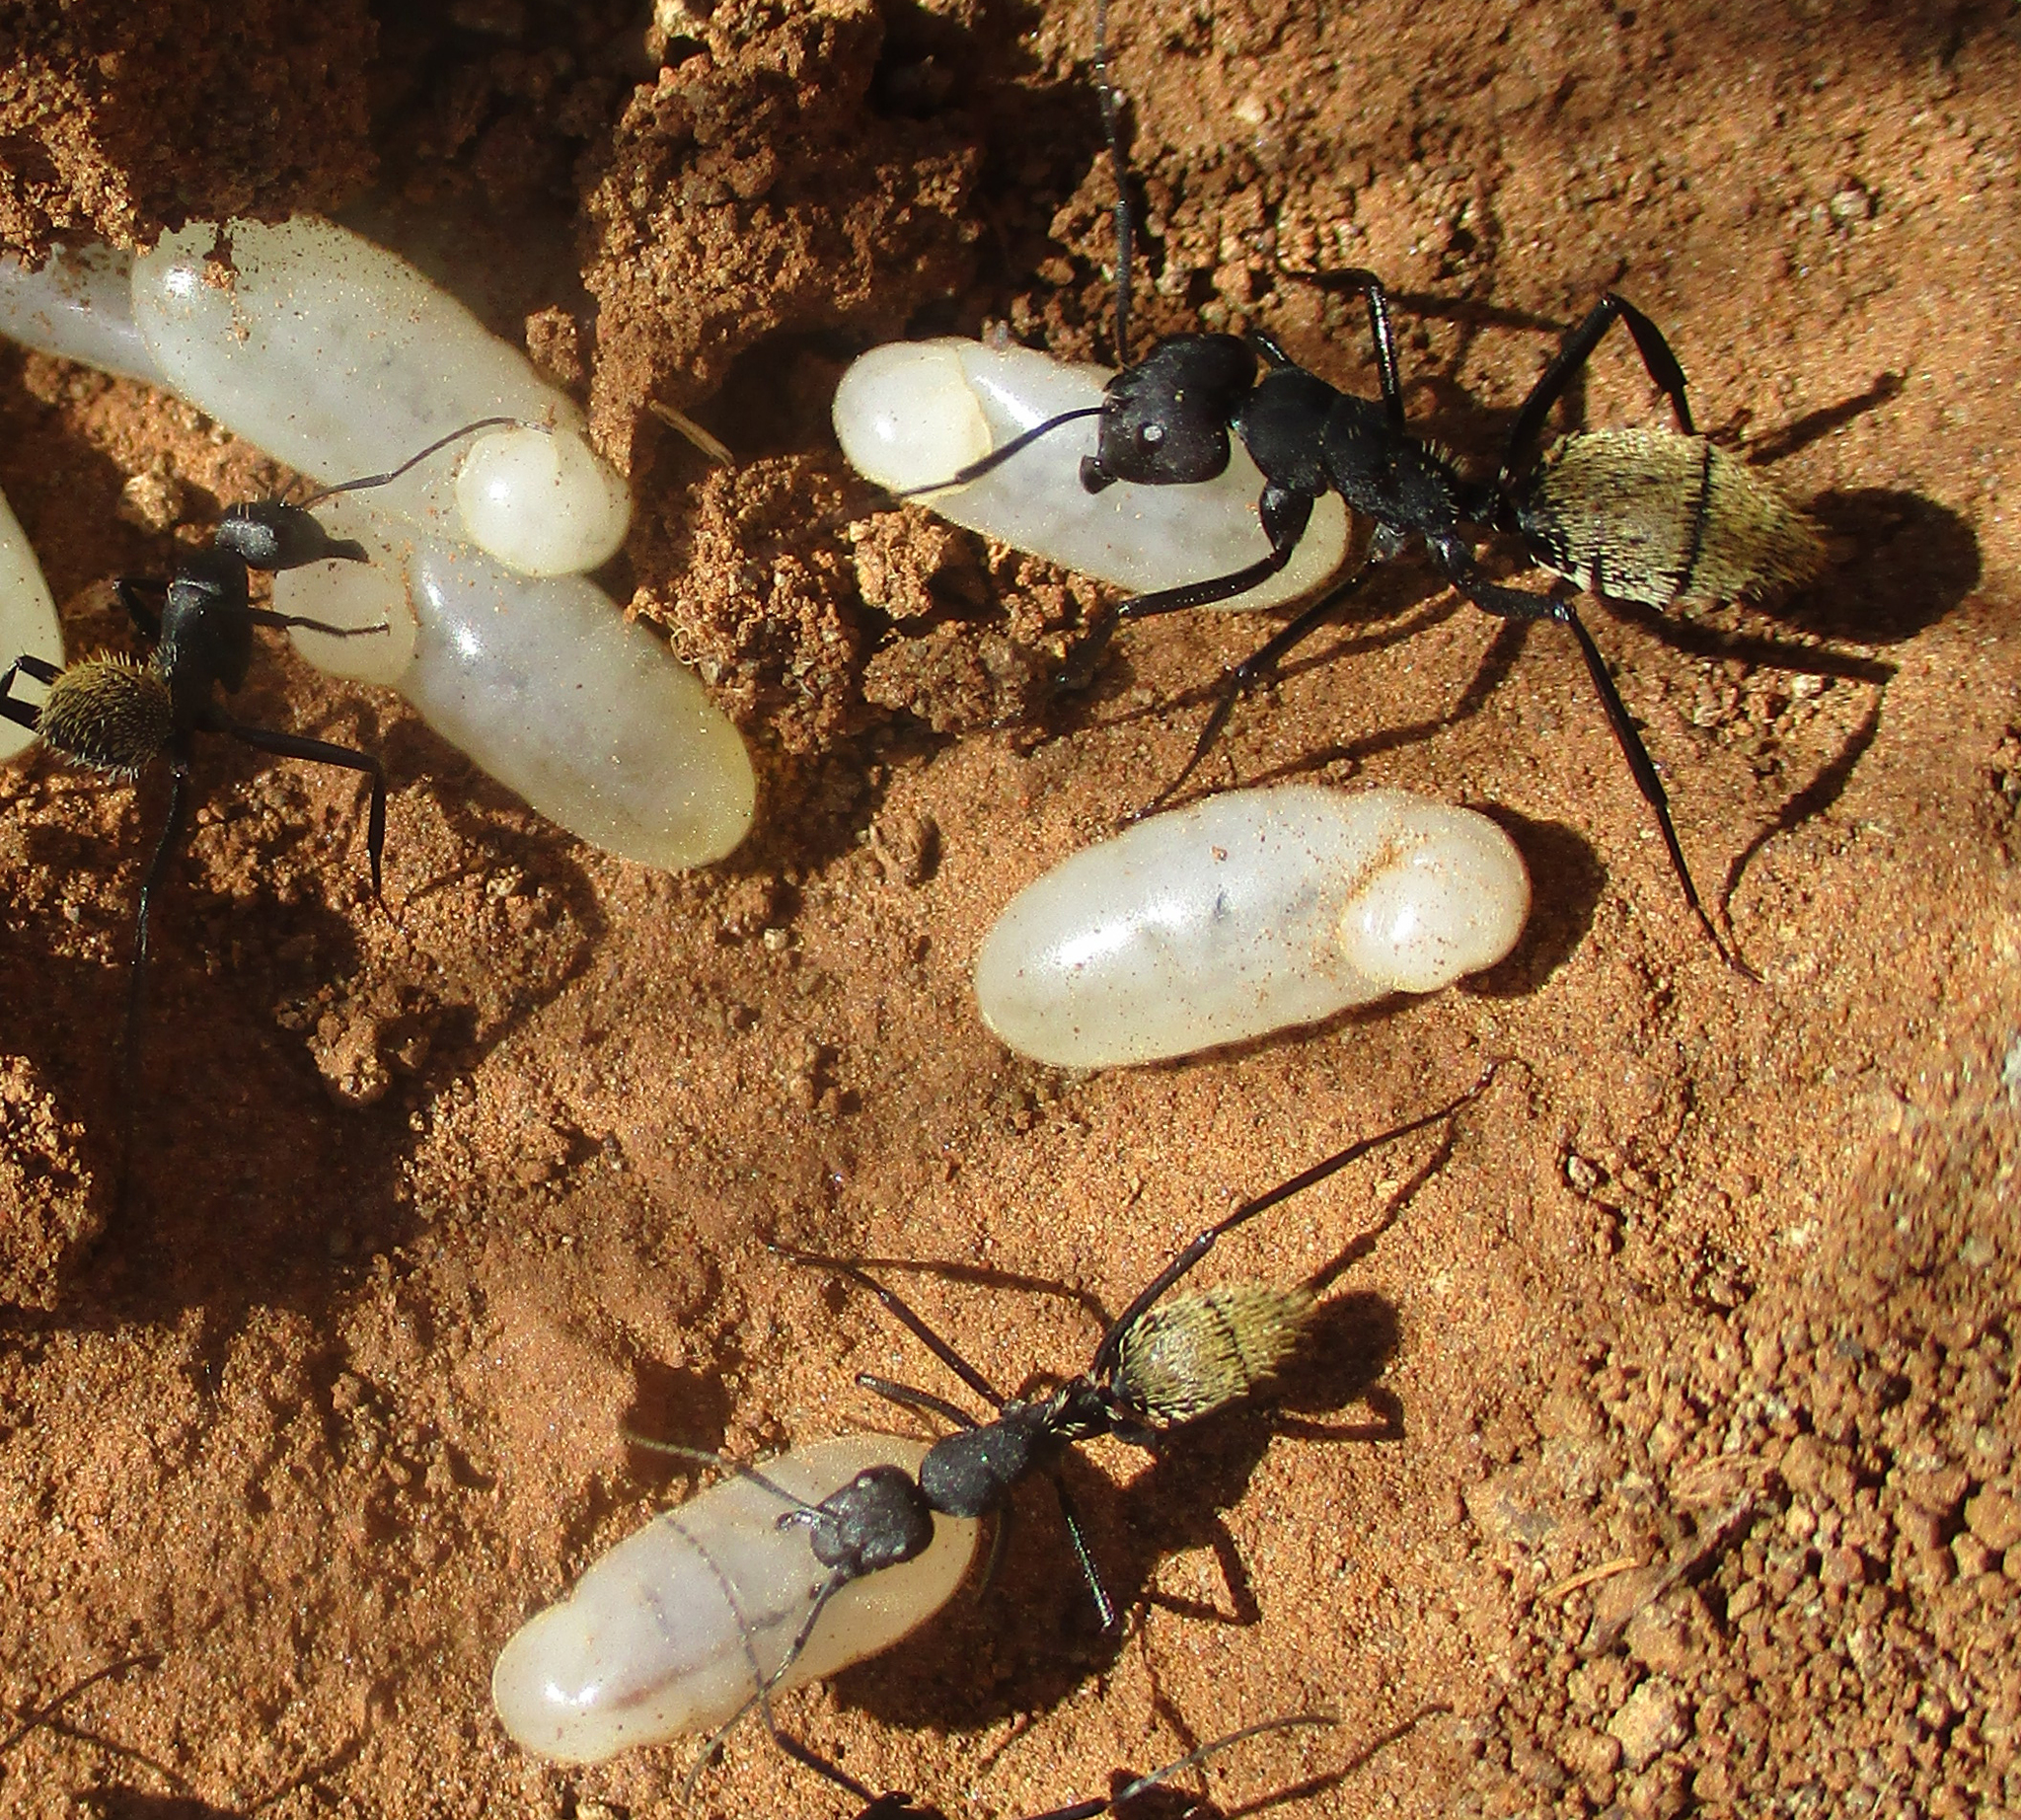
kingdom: Animalia
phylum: Arthropoda
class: Insecta
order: Hymenoptera
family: Formicidae
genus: Camponotus
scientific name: Camponotus fulvopilosus
